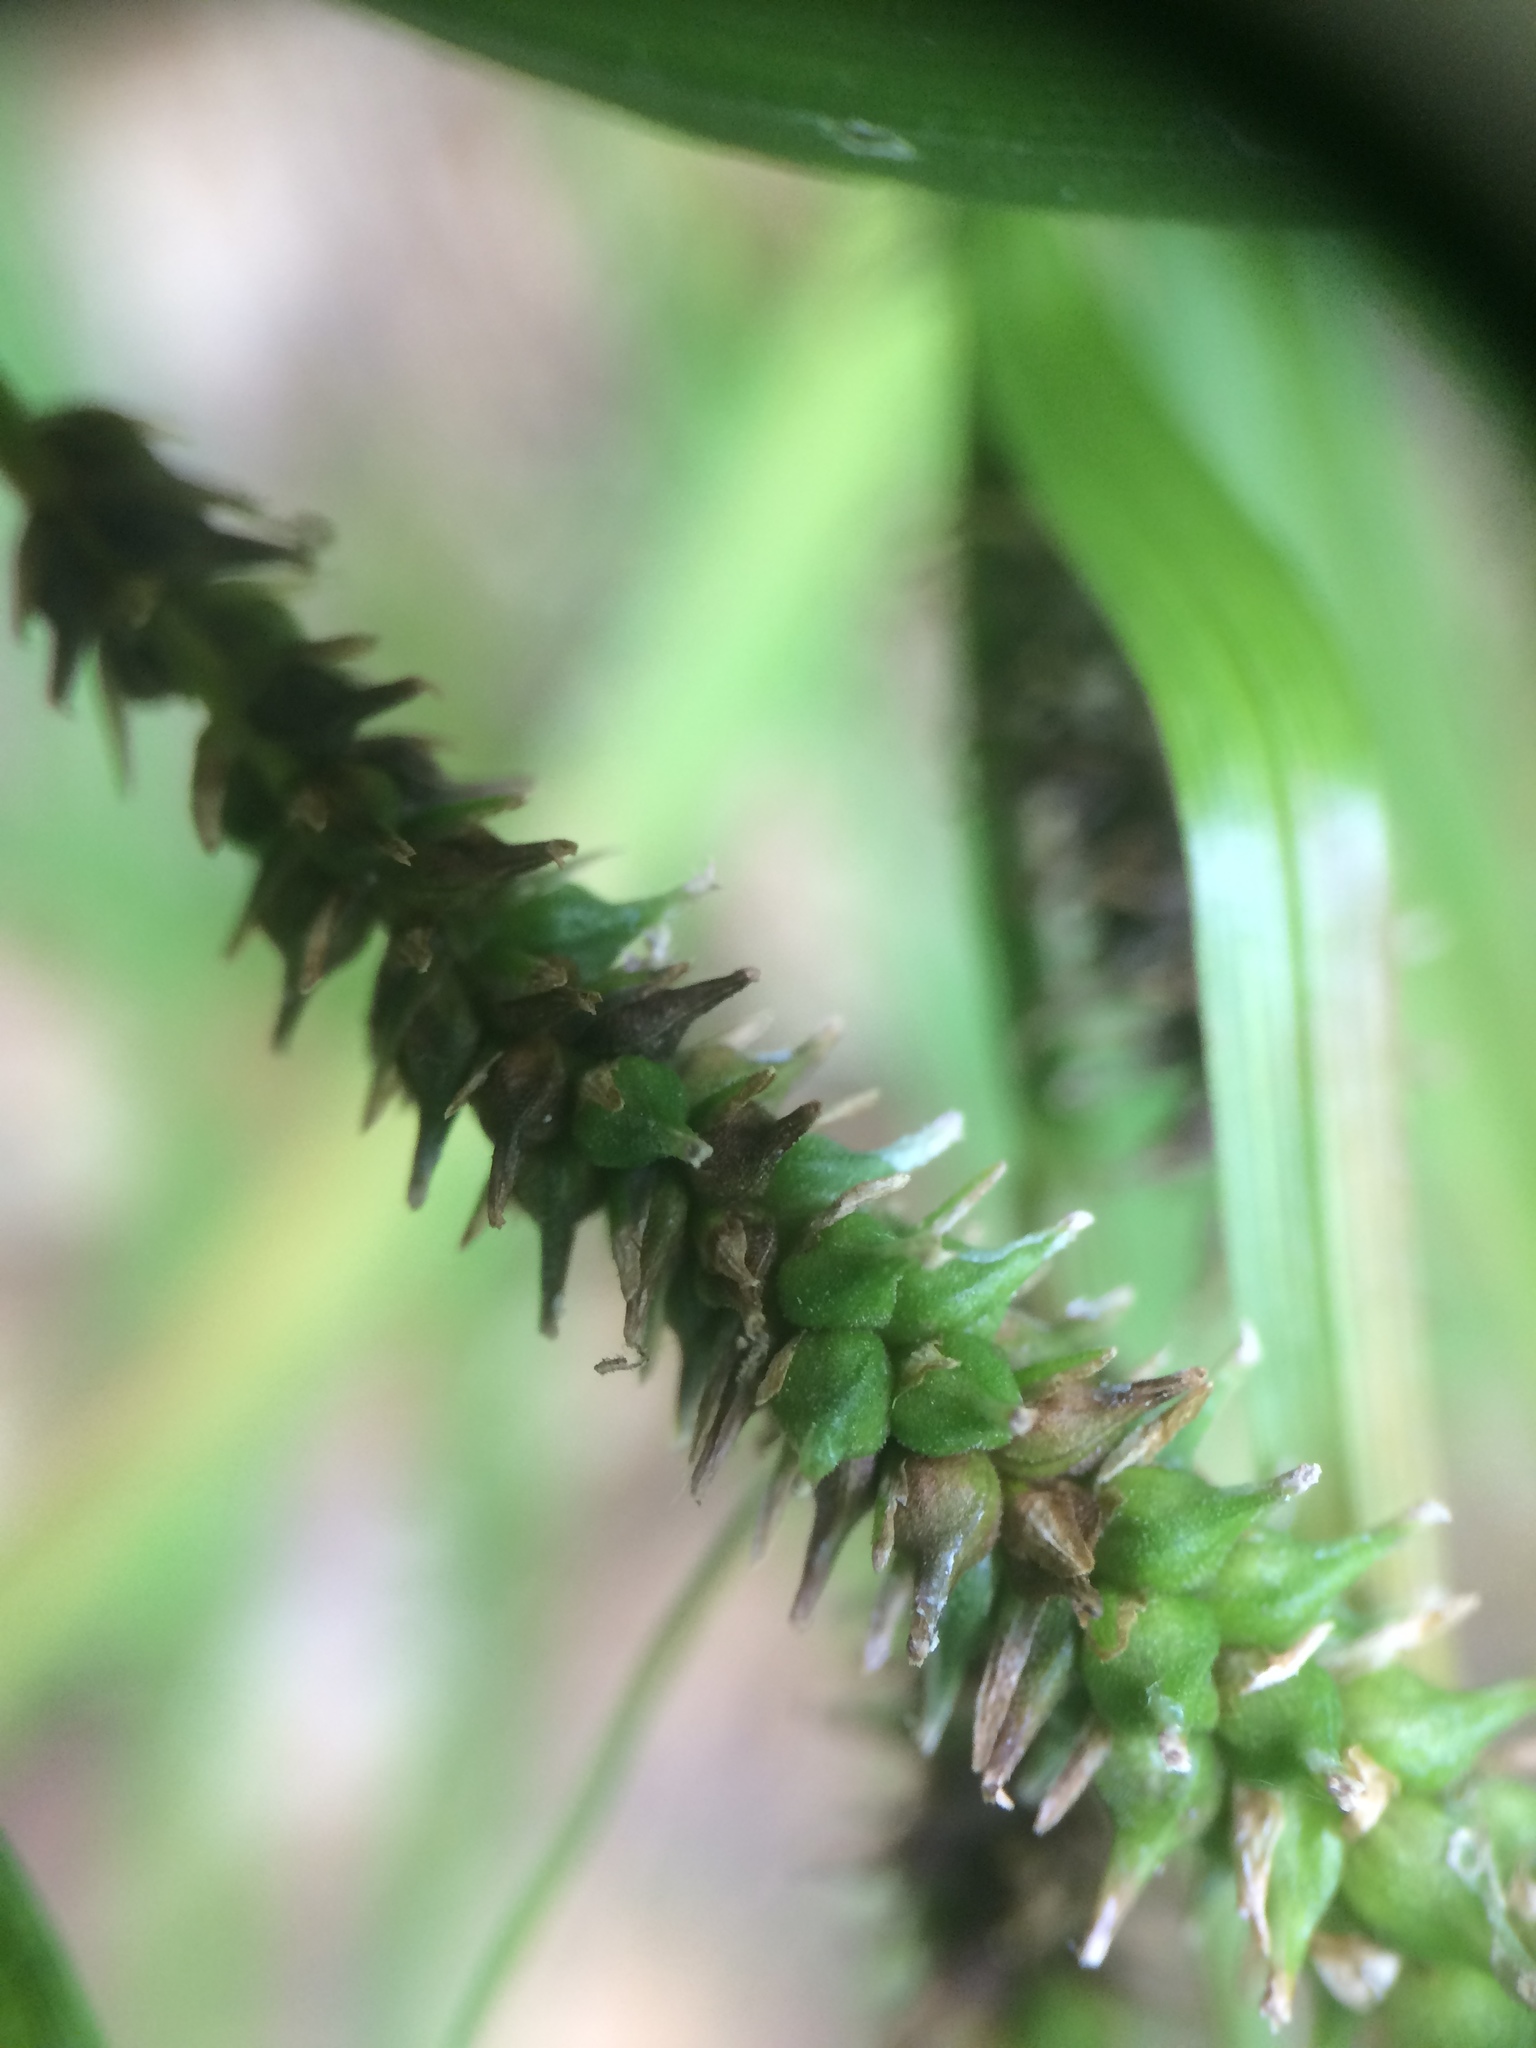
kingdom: Plantae
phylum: Tracheophyta
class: Liliopsida
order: Poales
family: Cyperaceae
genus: Carex
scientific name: Carex scabrata
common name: Eastern rough sedge
